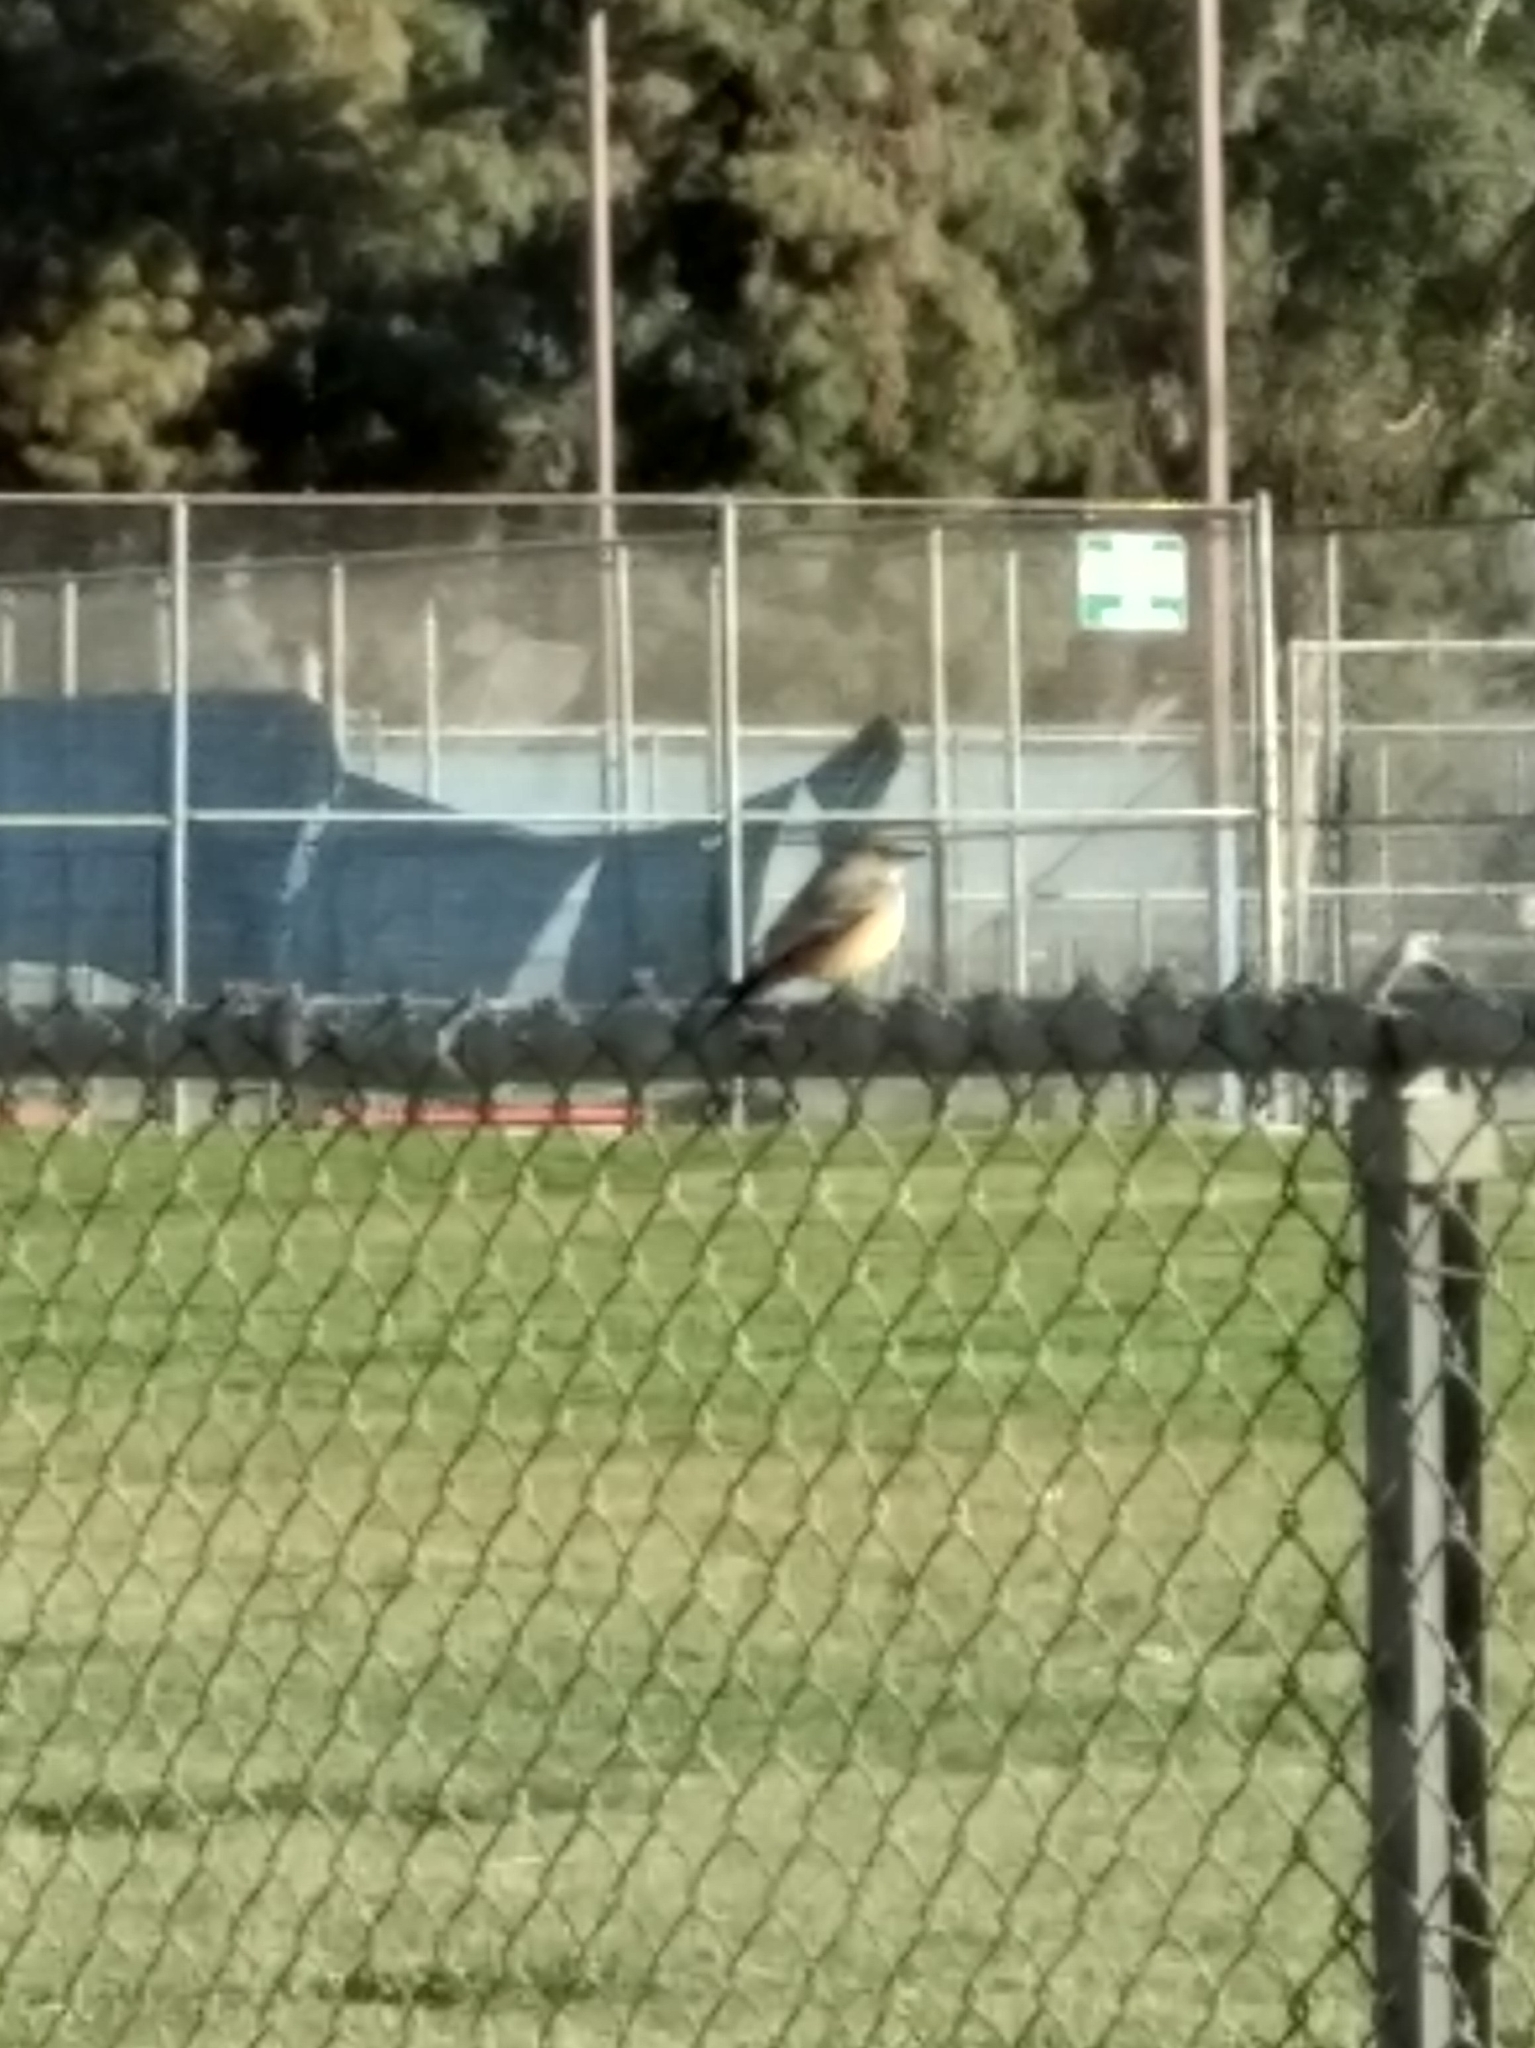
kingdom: Animalia
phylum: Chordata
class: Aves
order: Passeriformes
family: Tyrannidae
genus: Sayornis
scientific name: Sayornis saya
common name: Say's phoebe
